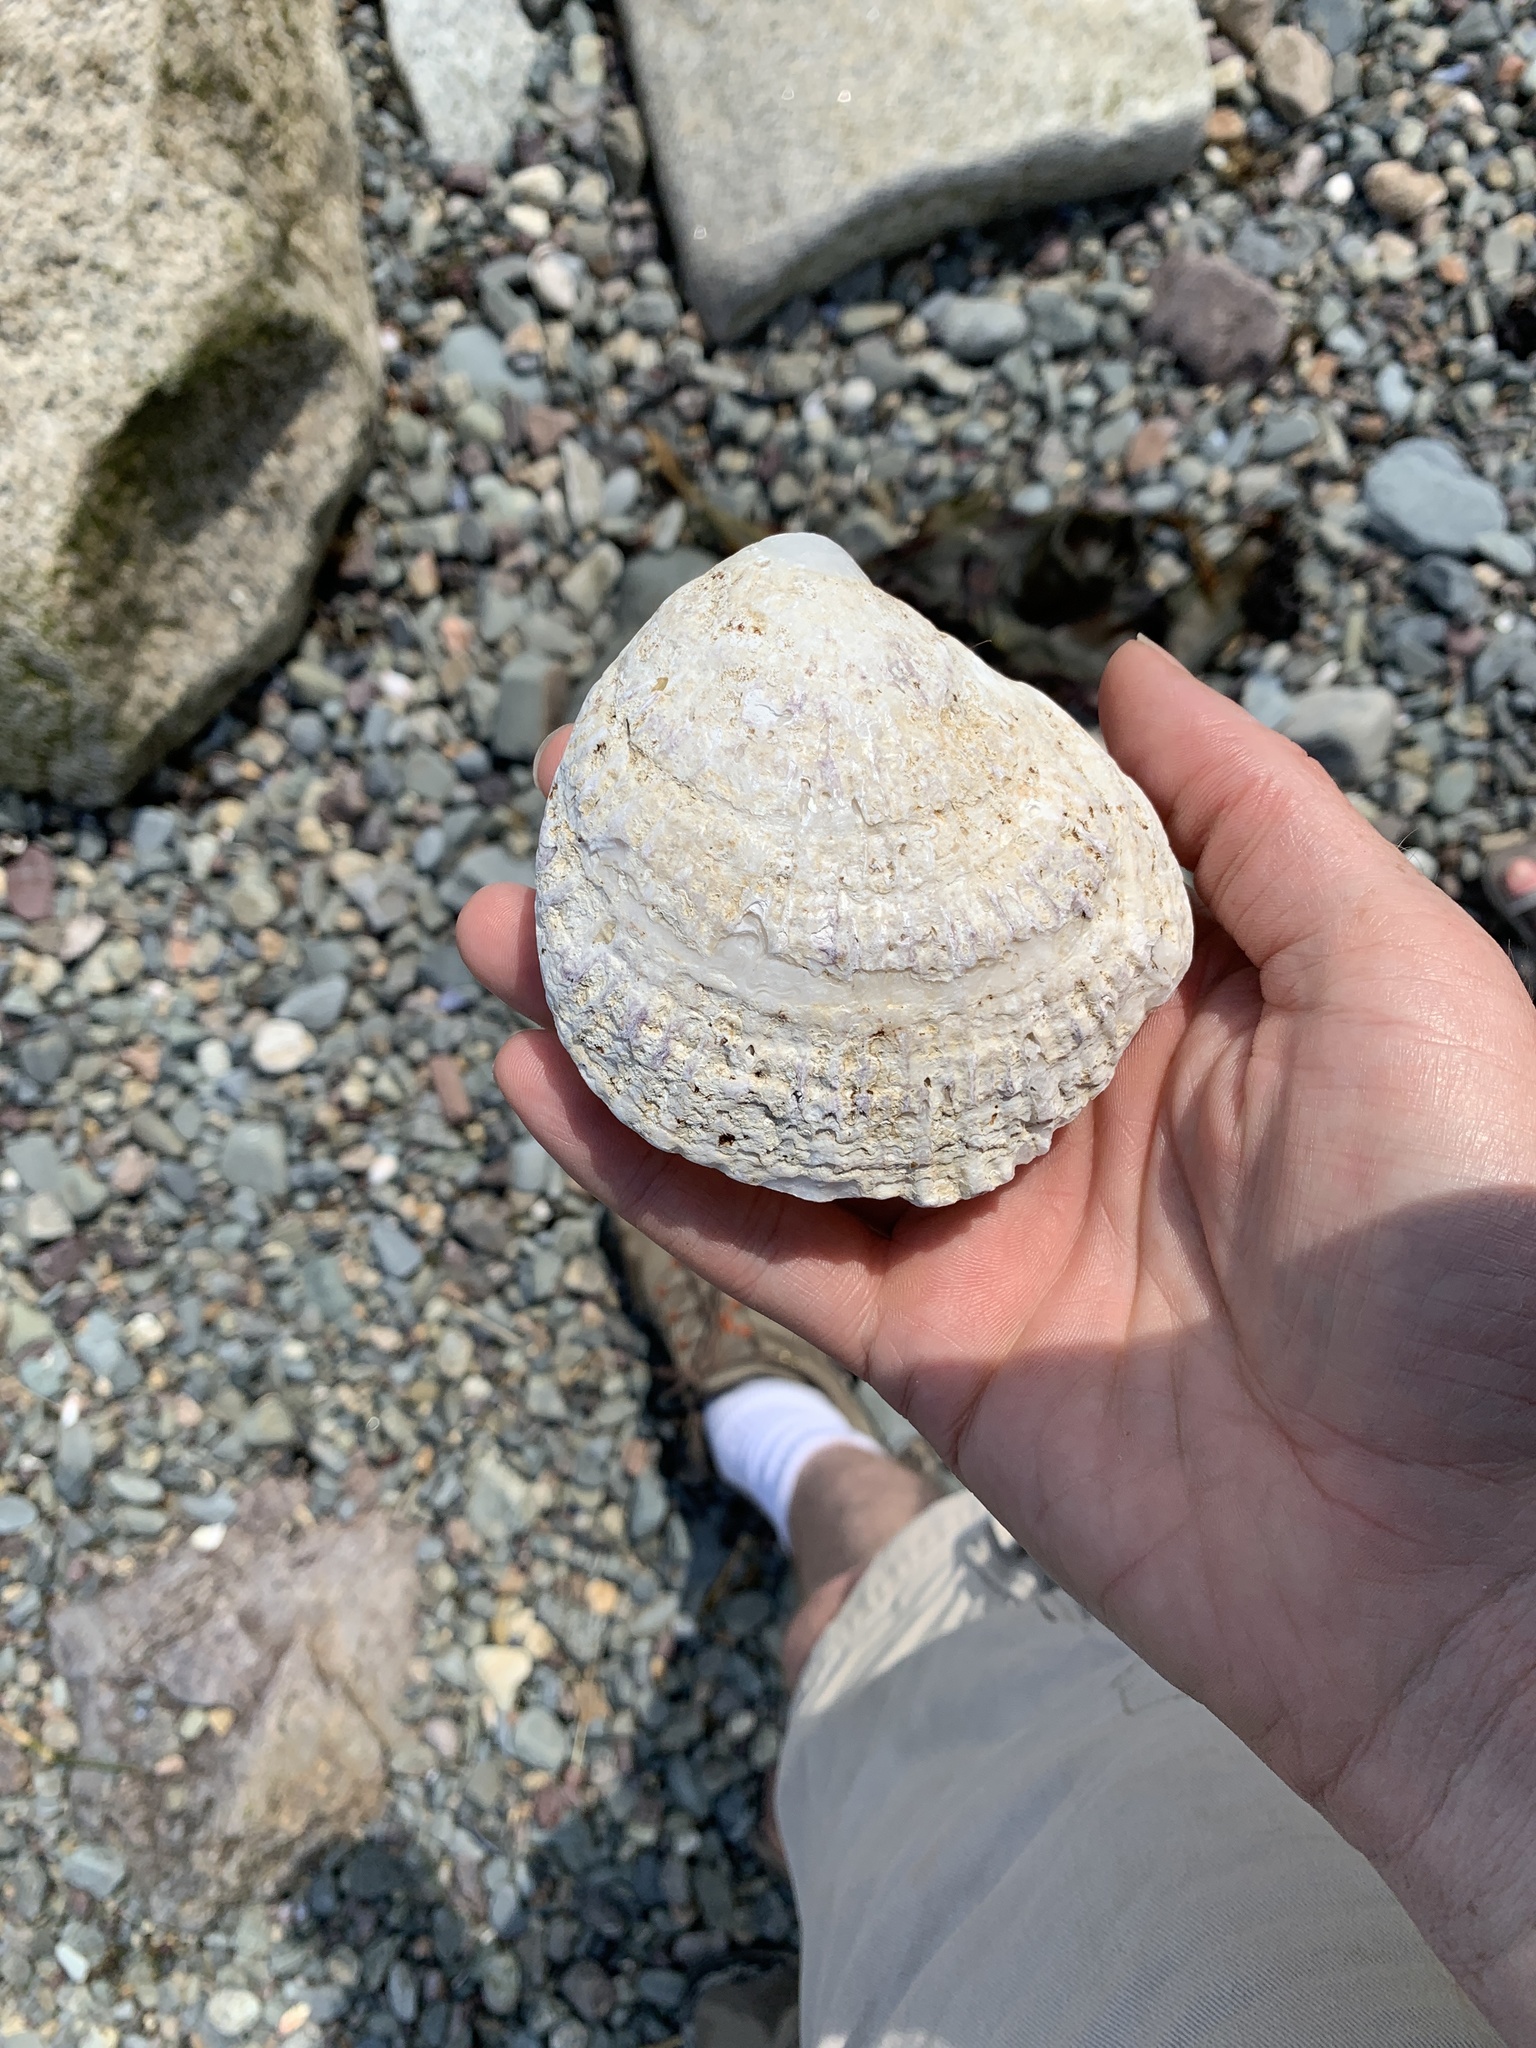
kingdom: Animalia
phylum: Mollusca
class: Bivalvia
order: Ostreida
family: Ostreidae
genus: Ostrea
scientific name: Ostrea edulis
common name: Flat oyster
